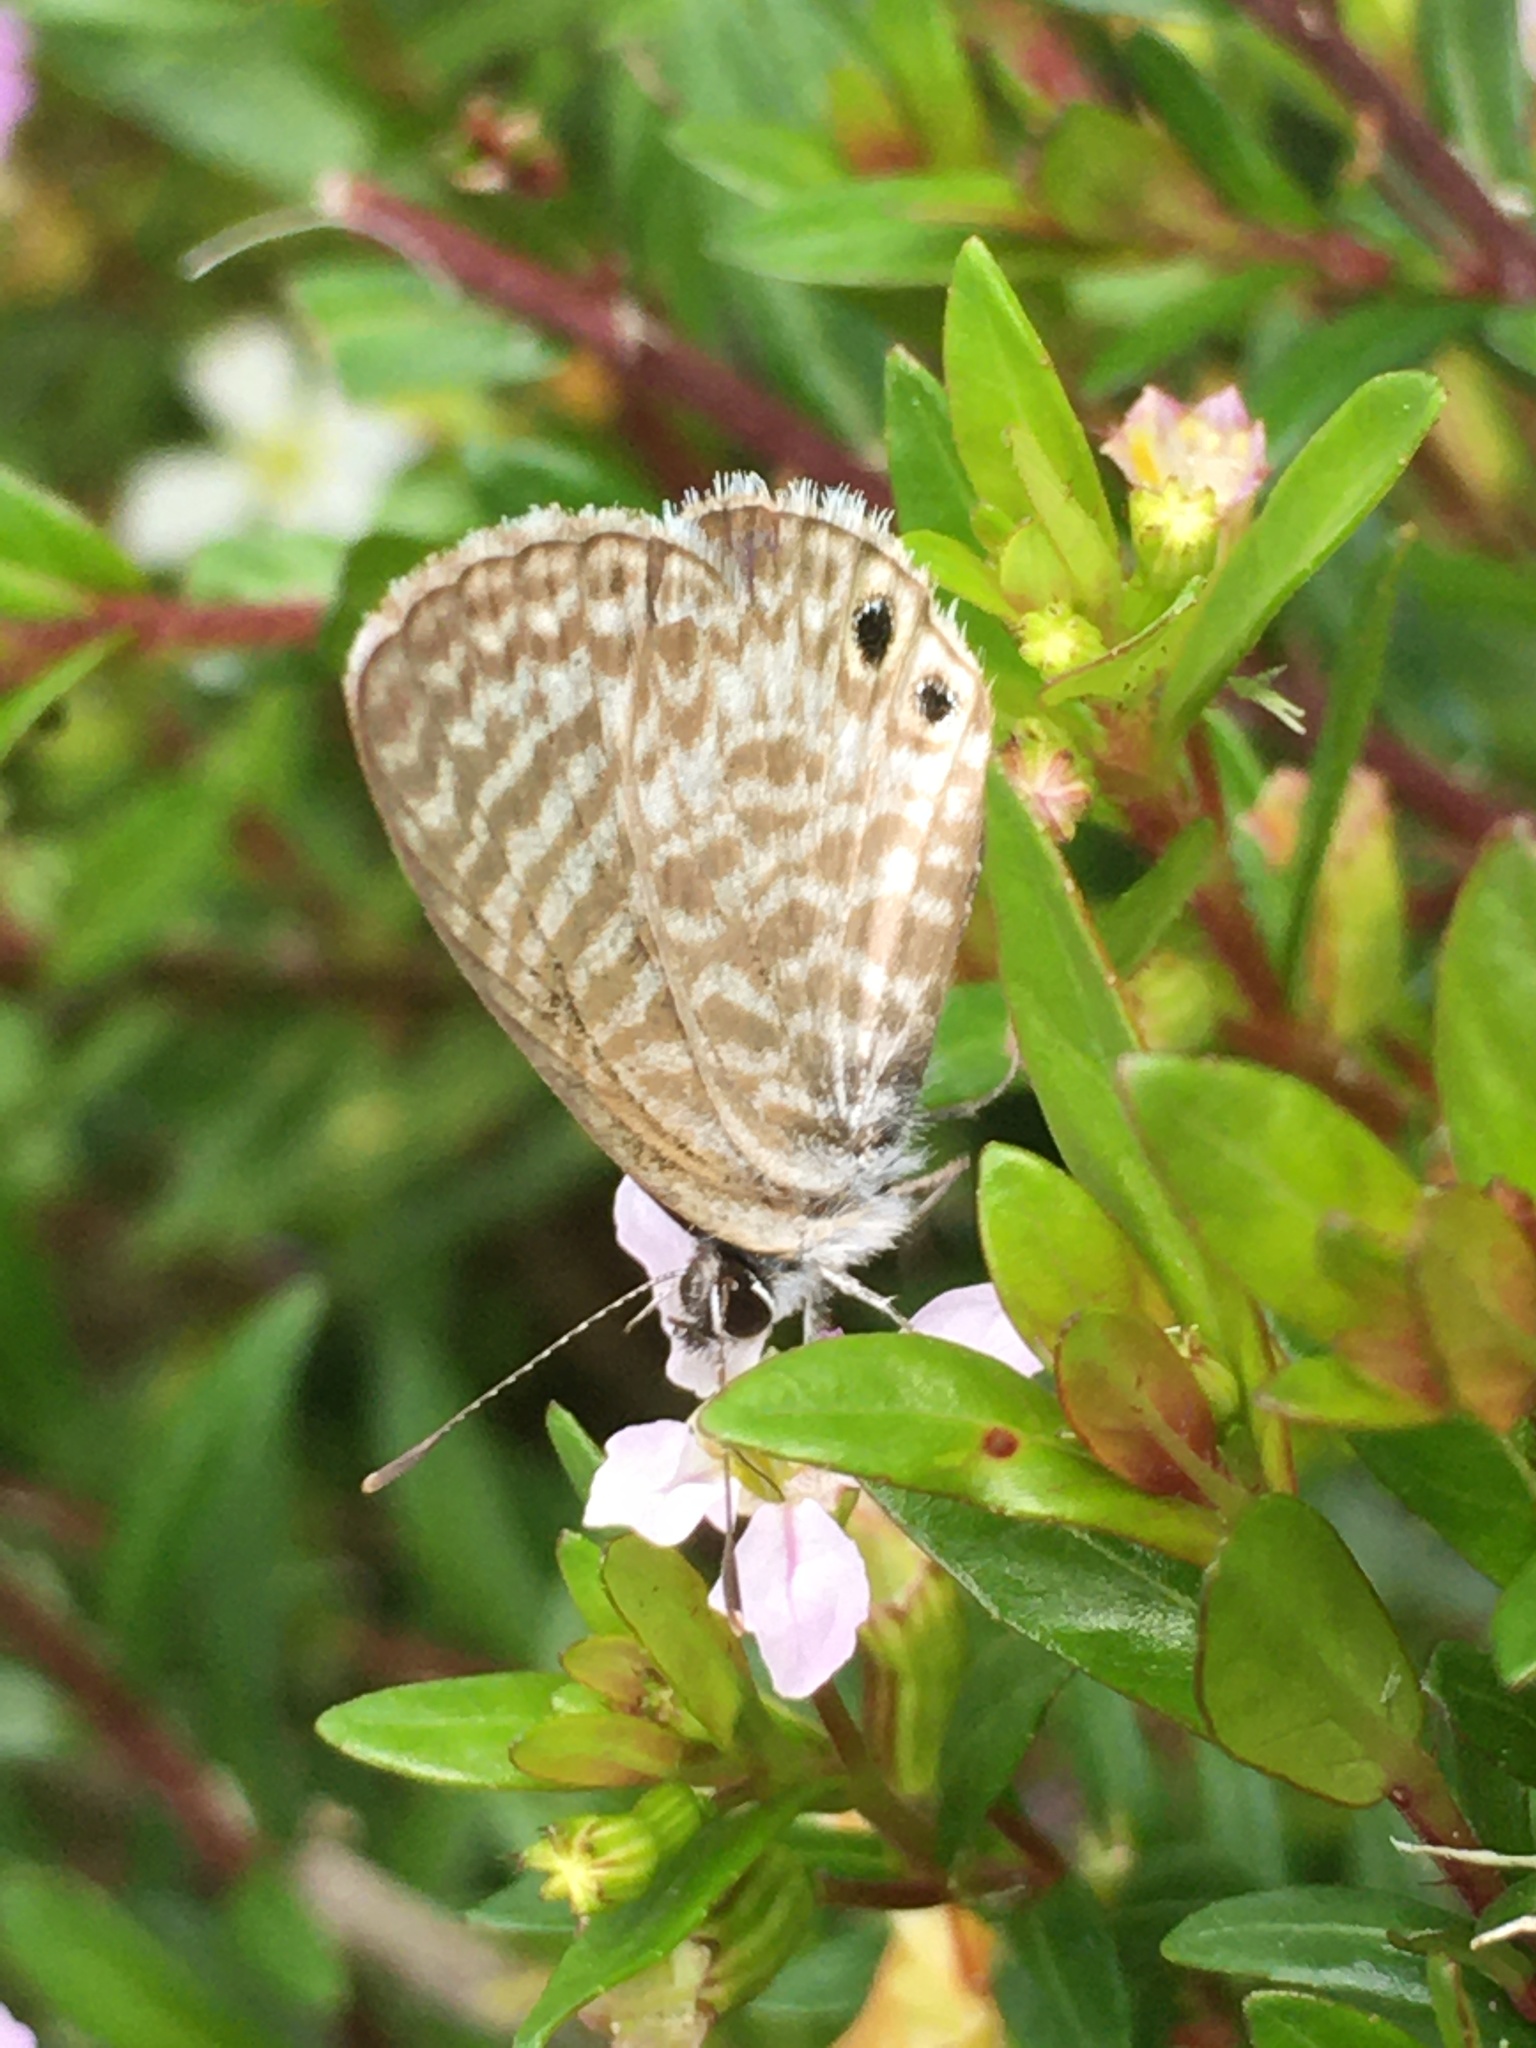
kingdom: Animalia
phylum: Arthropoda
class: Insecta
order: Lepidoptera
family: Lycaenidae
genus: Leptotes
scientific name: Leptotes marina
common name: Marine blue
